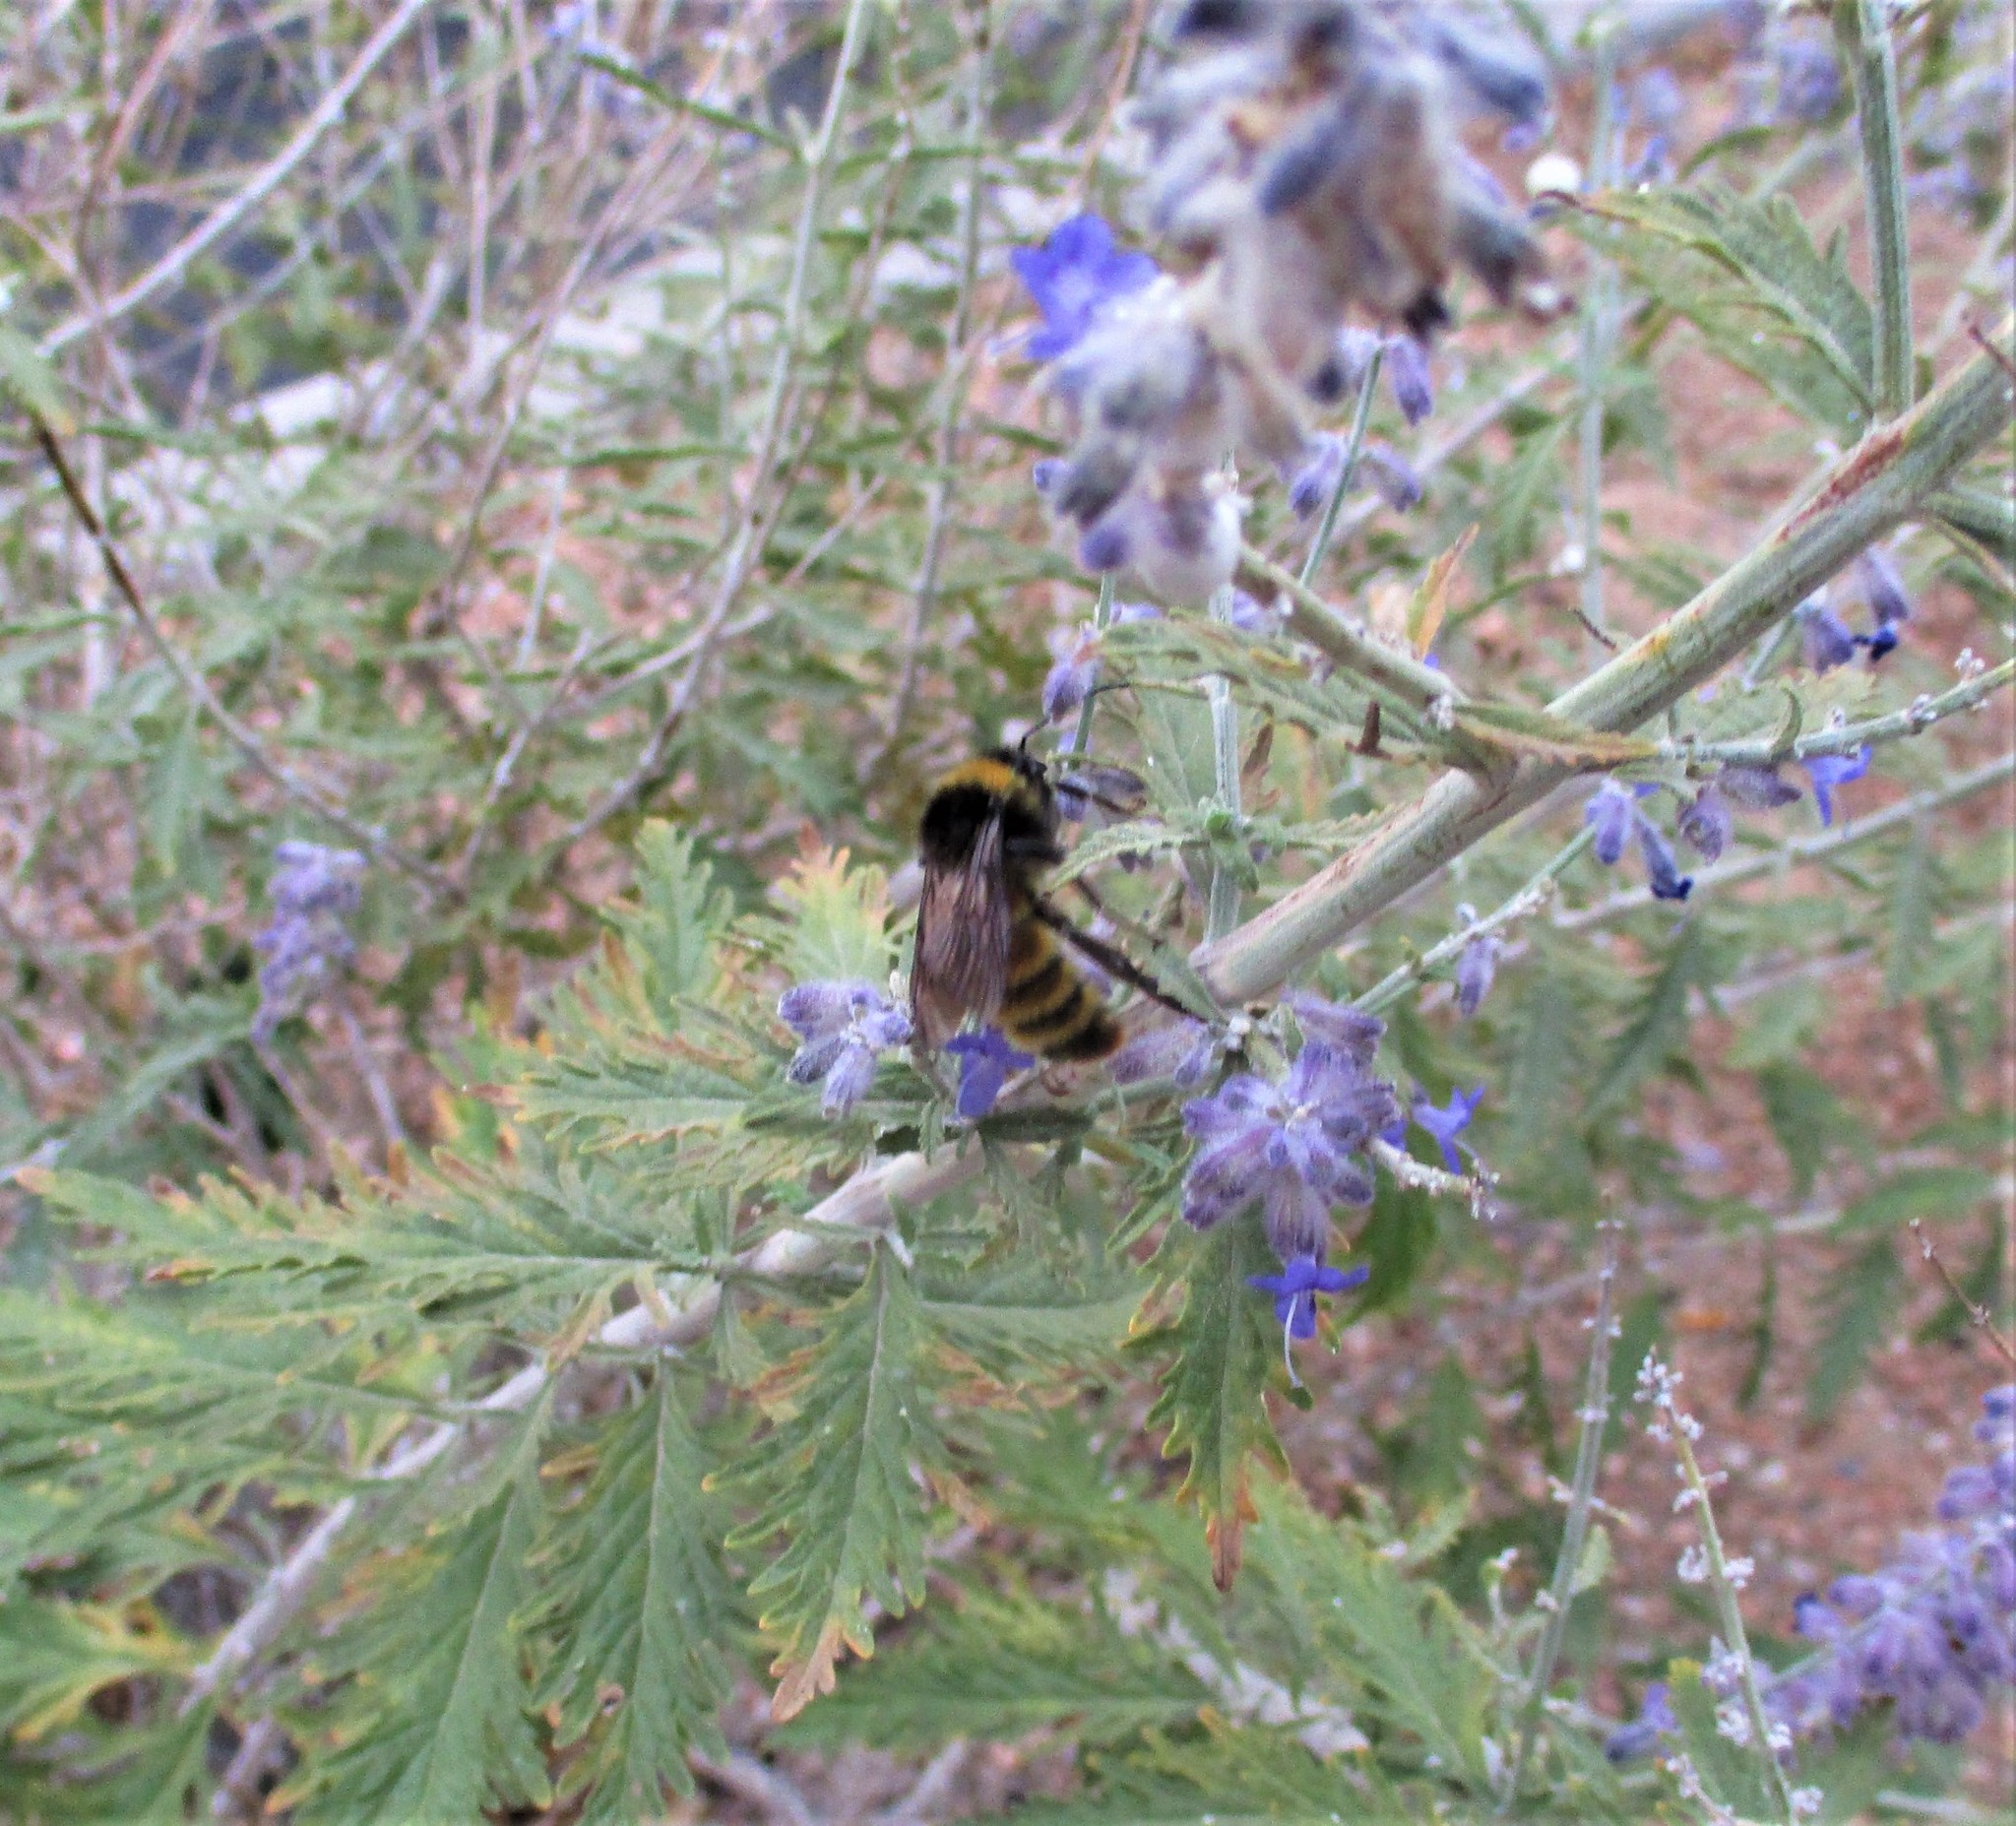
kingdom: Animalia
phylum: Arthropoda
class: Insecta
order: Hymenoptera
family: Apidae
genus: Bombus
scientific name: Bombus pensylvanicus
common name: Bumble bee
